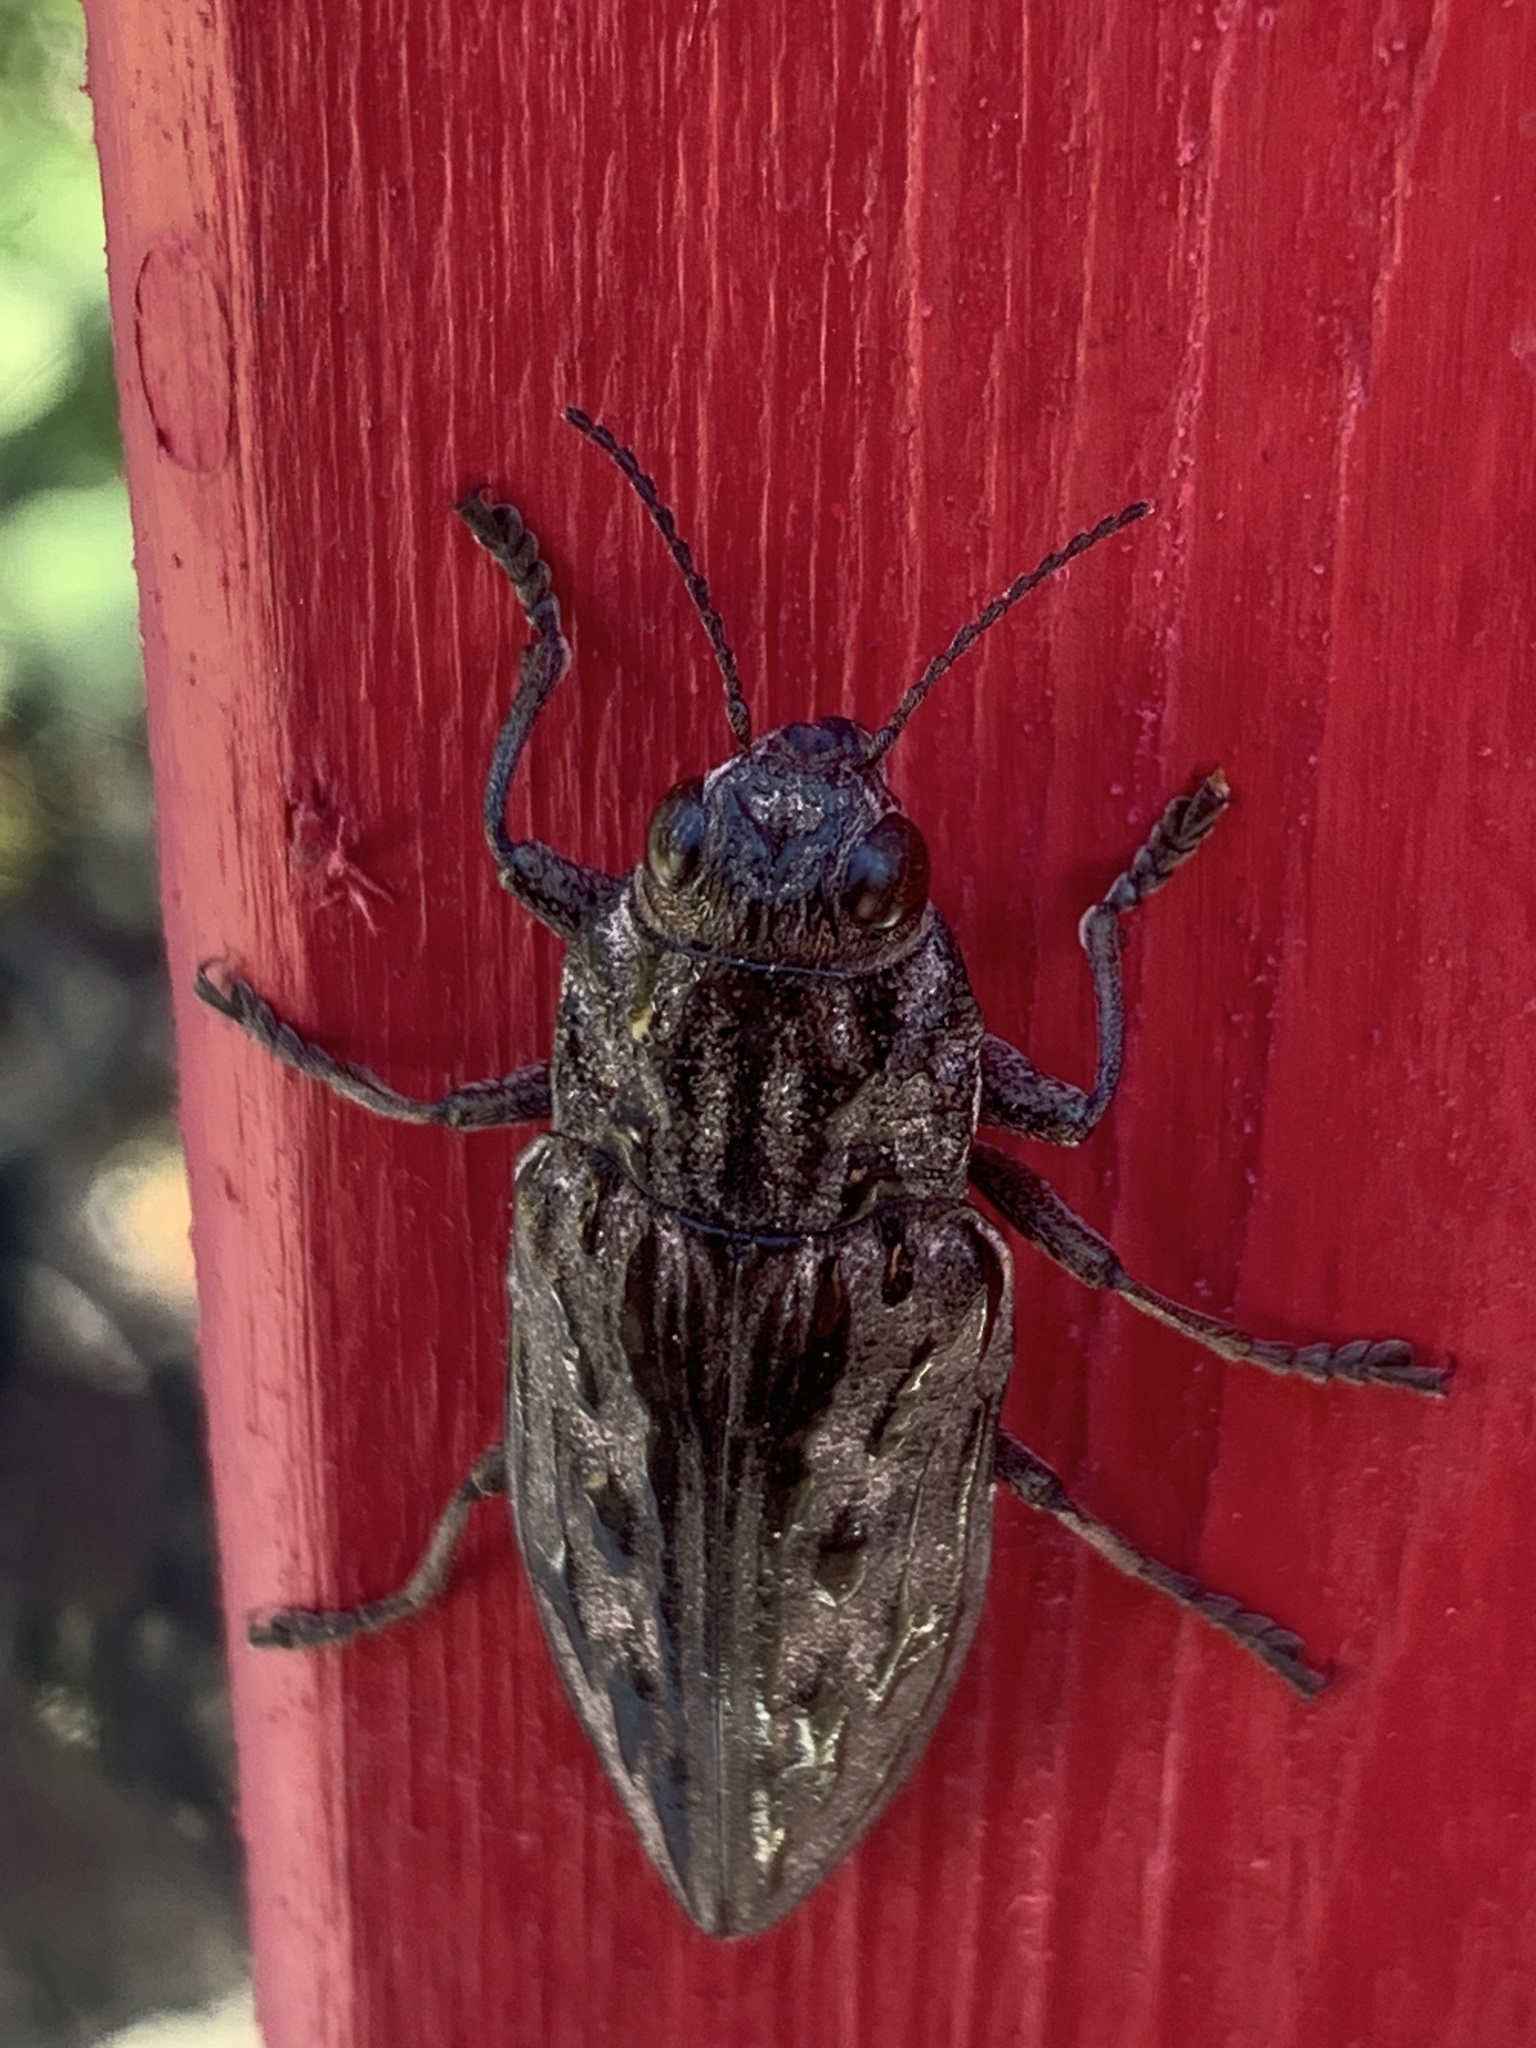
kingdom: Animalia
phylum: Arthropoda
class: Insecta
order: Coleoptera
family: Buprestidae
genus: Chalcophora
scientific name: Chalcophora angulicollis
